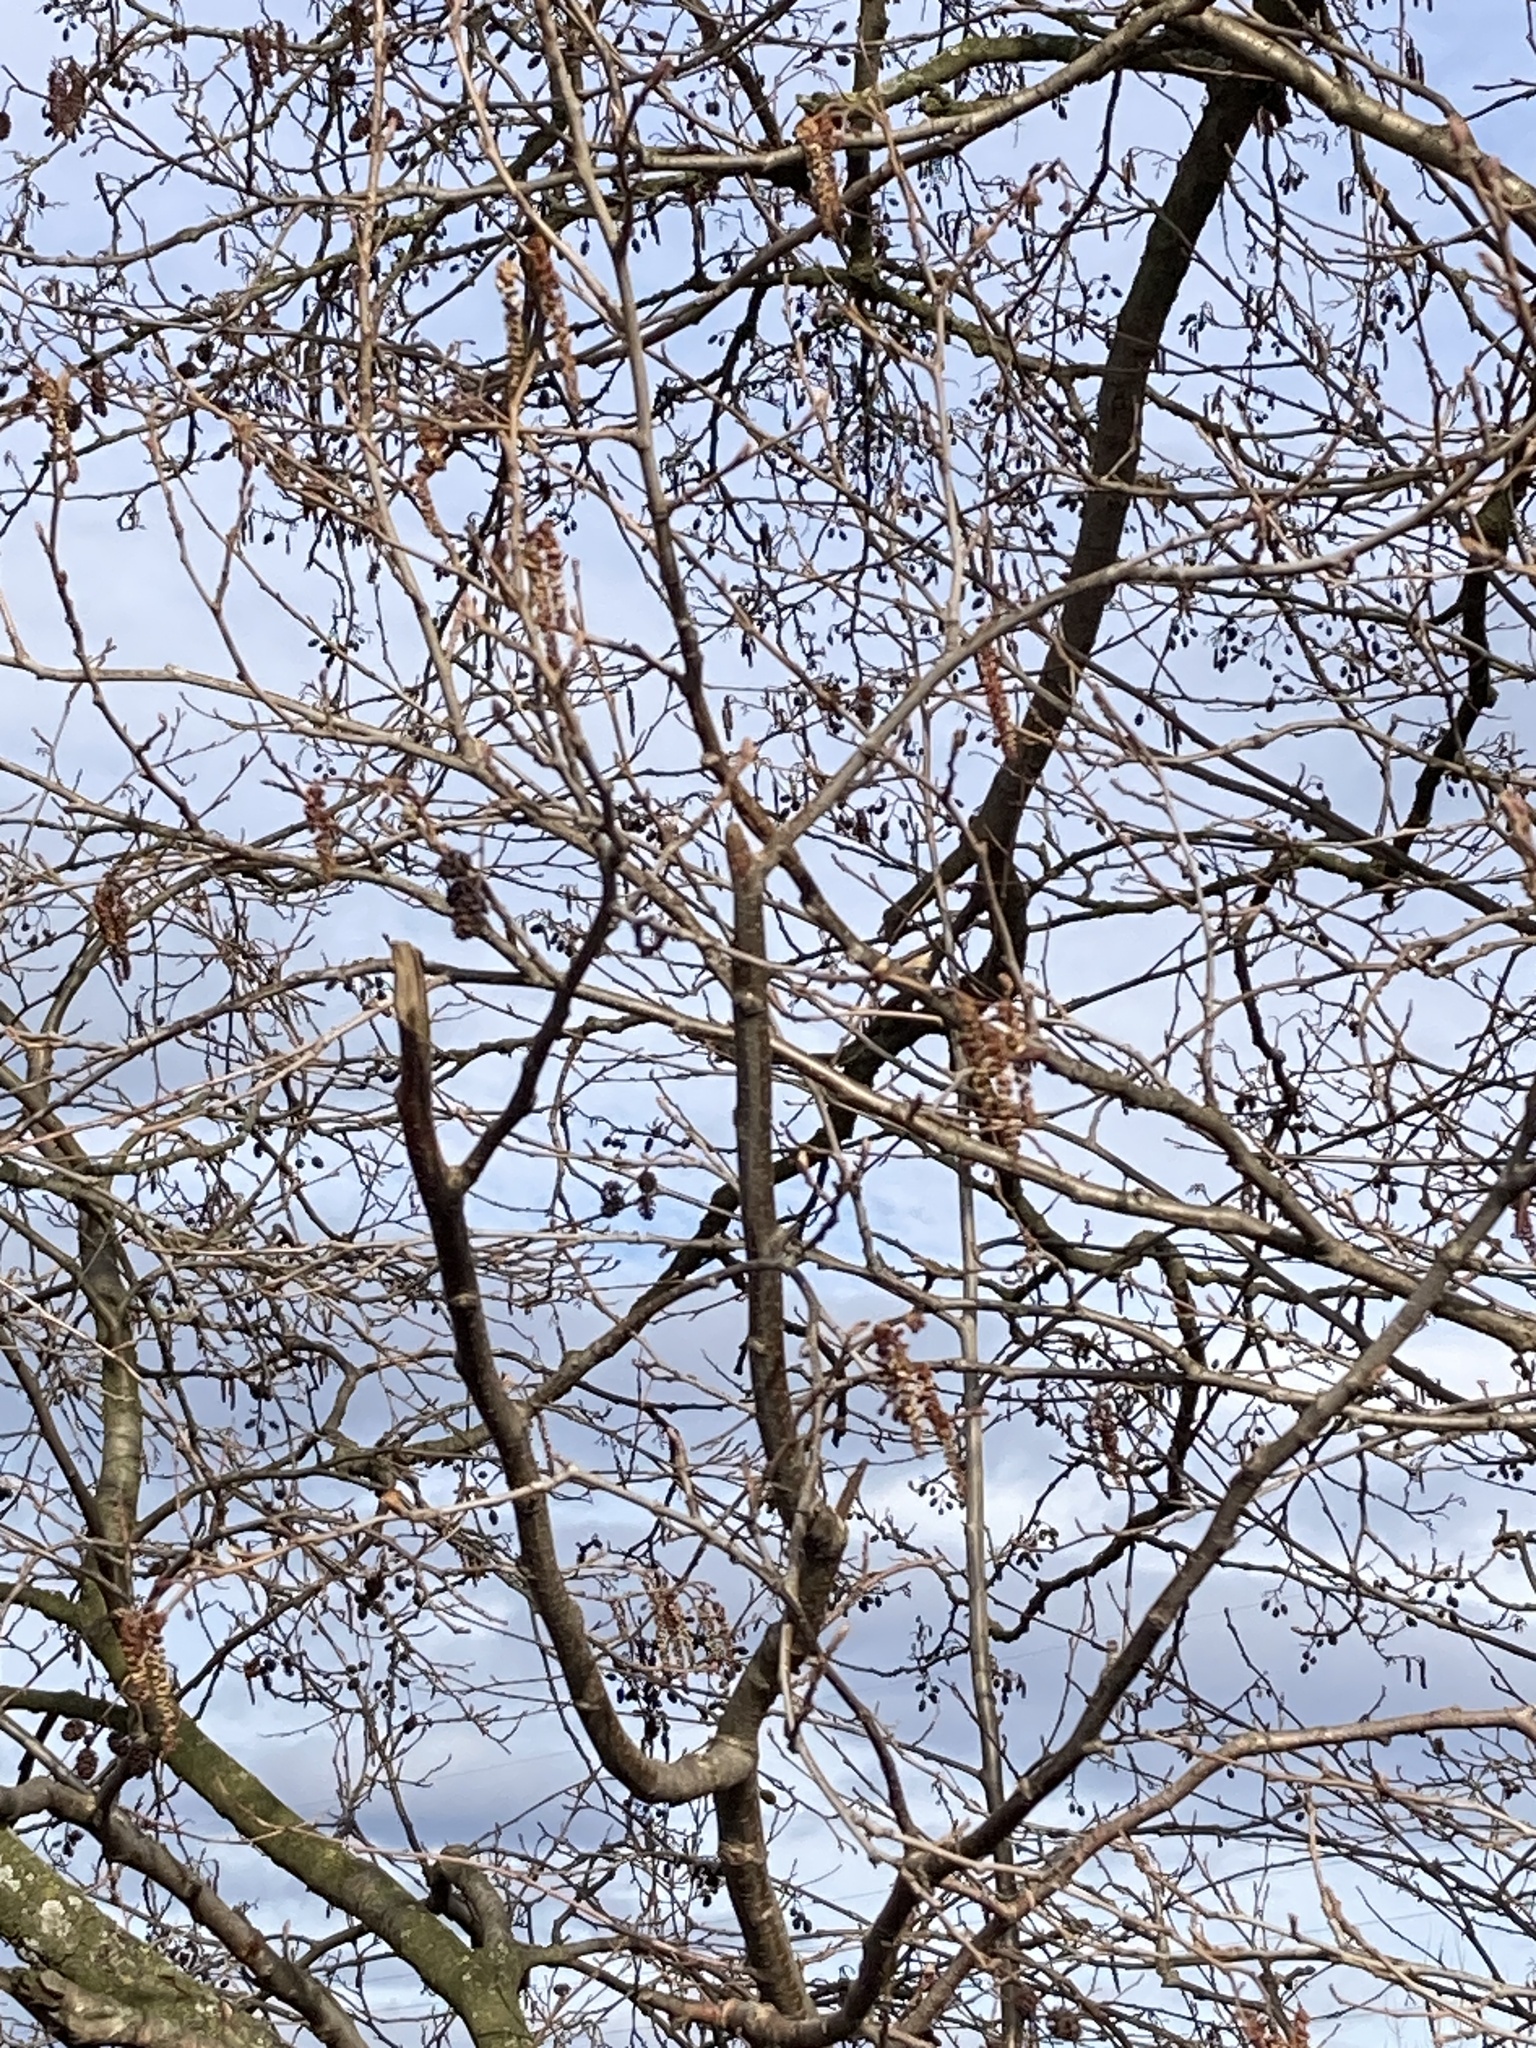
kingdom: Plantae
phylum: Tracheophyta
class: Magnoliopsida
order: Fagales
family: Betulaceae
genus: Alnus
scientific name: Alnus glutinosa
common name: Black alder
